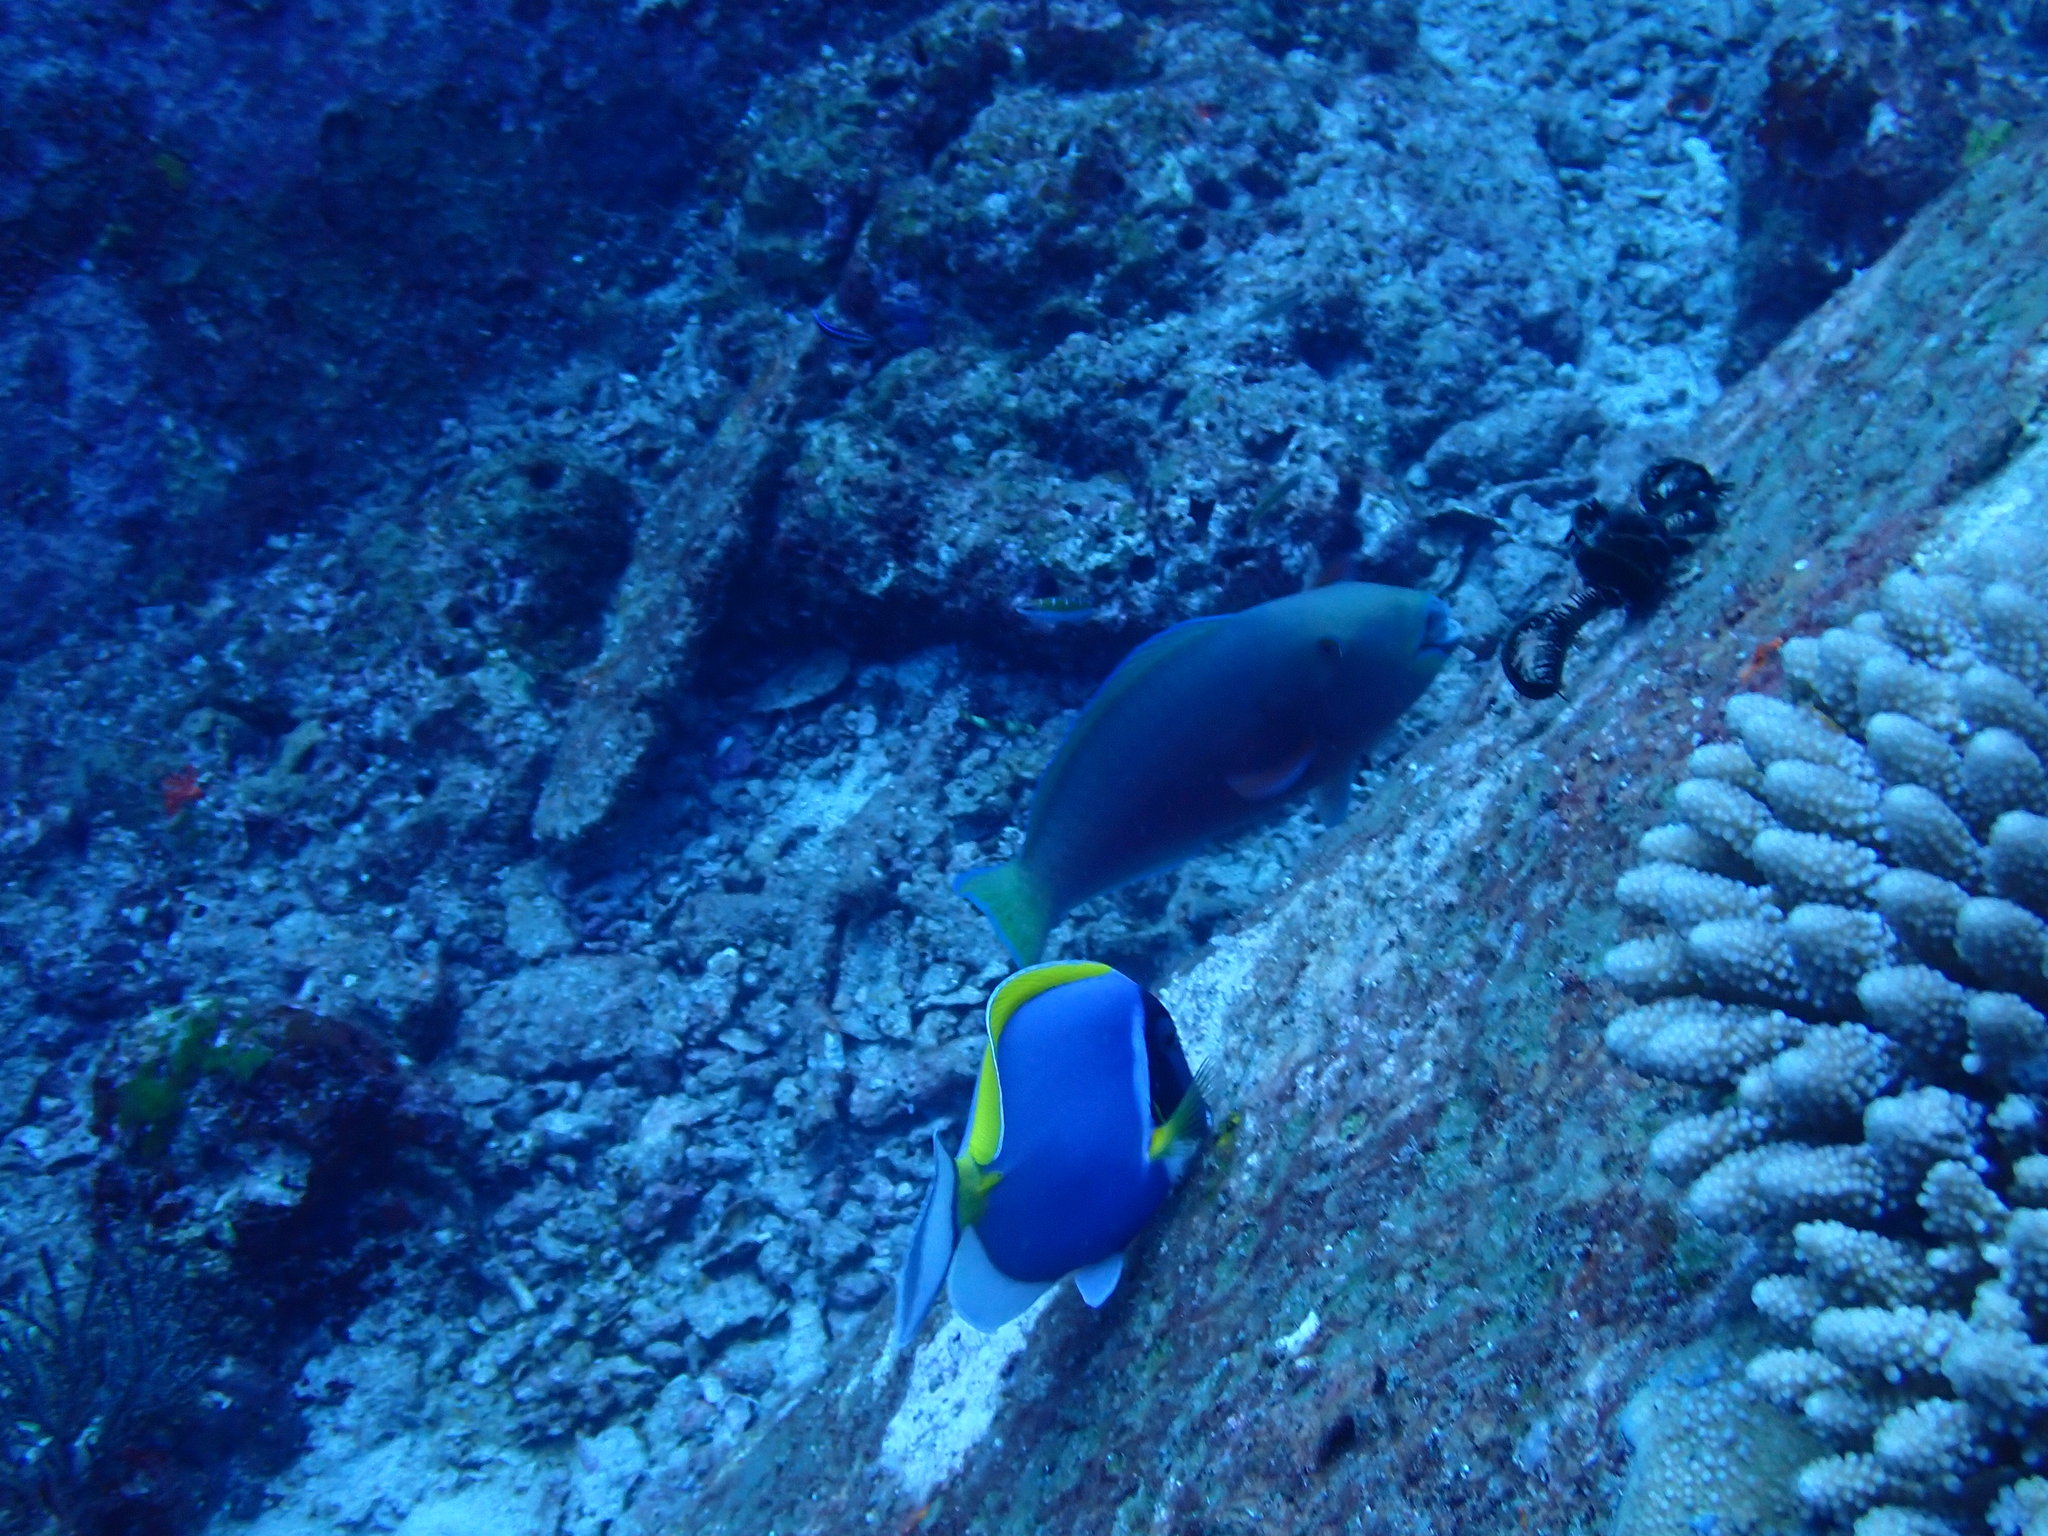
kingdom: Animalia
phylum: Chordata
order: Perciformes
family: Acanthuridae
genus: Acanthurus
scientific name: Acanthurus leucosternon
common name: Blue surgeonfish
